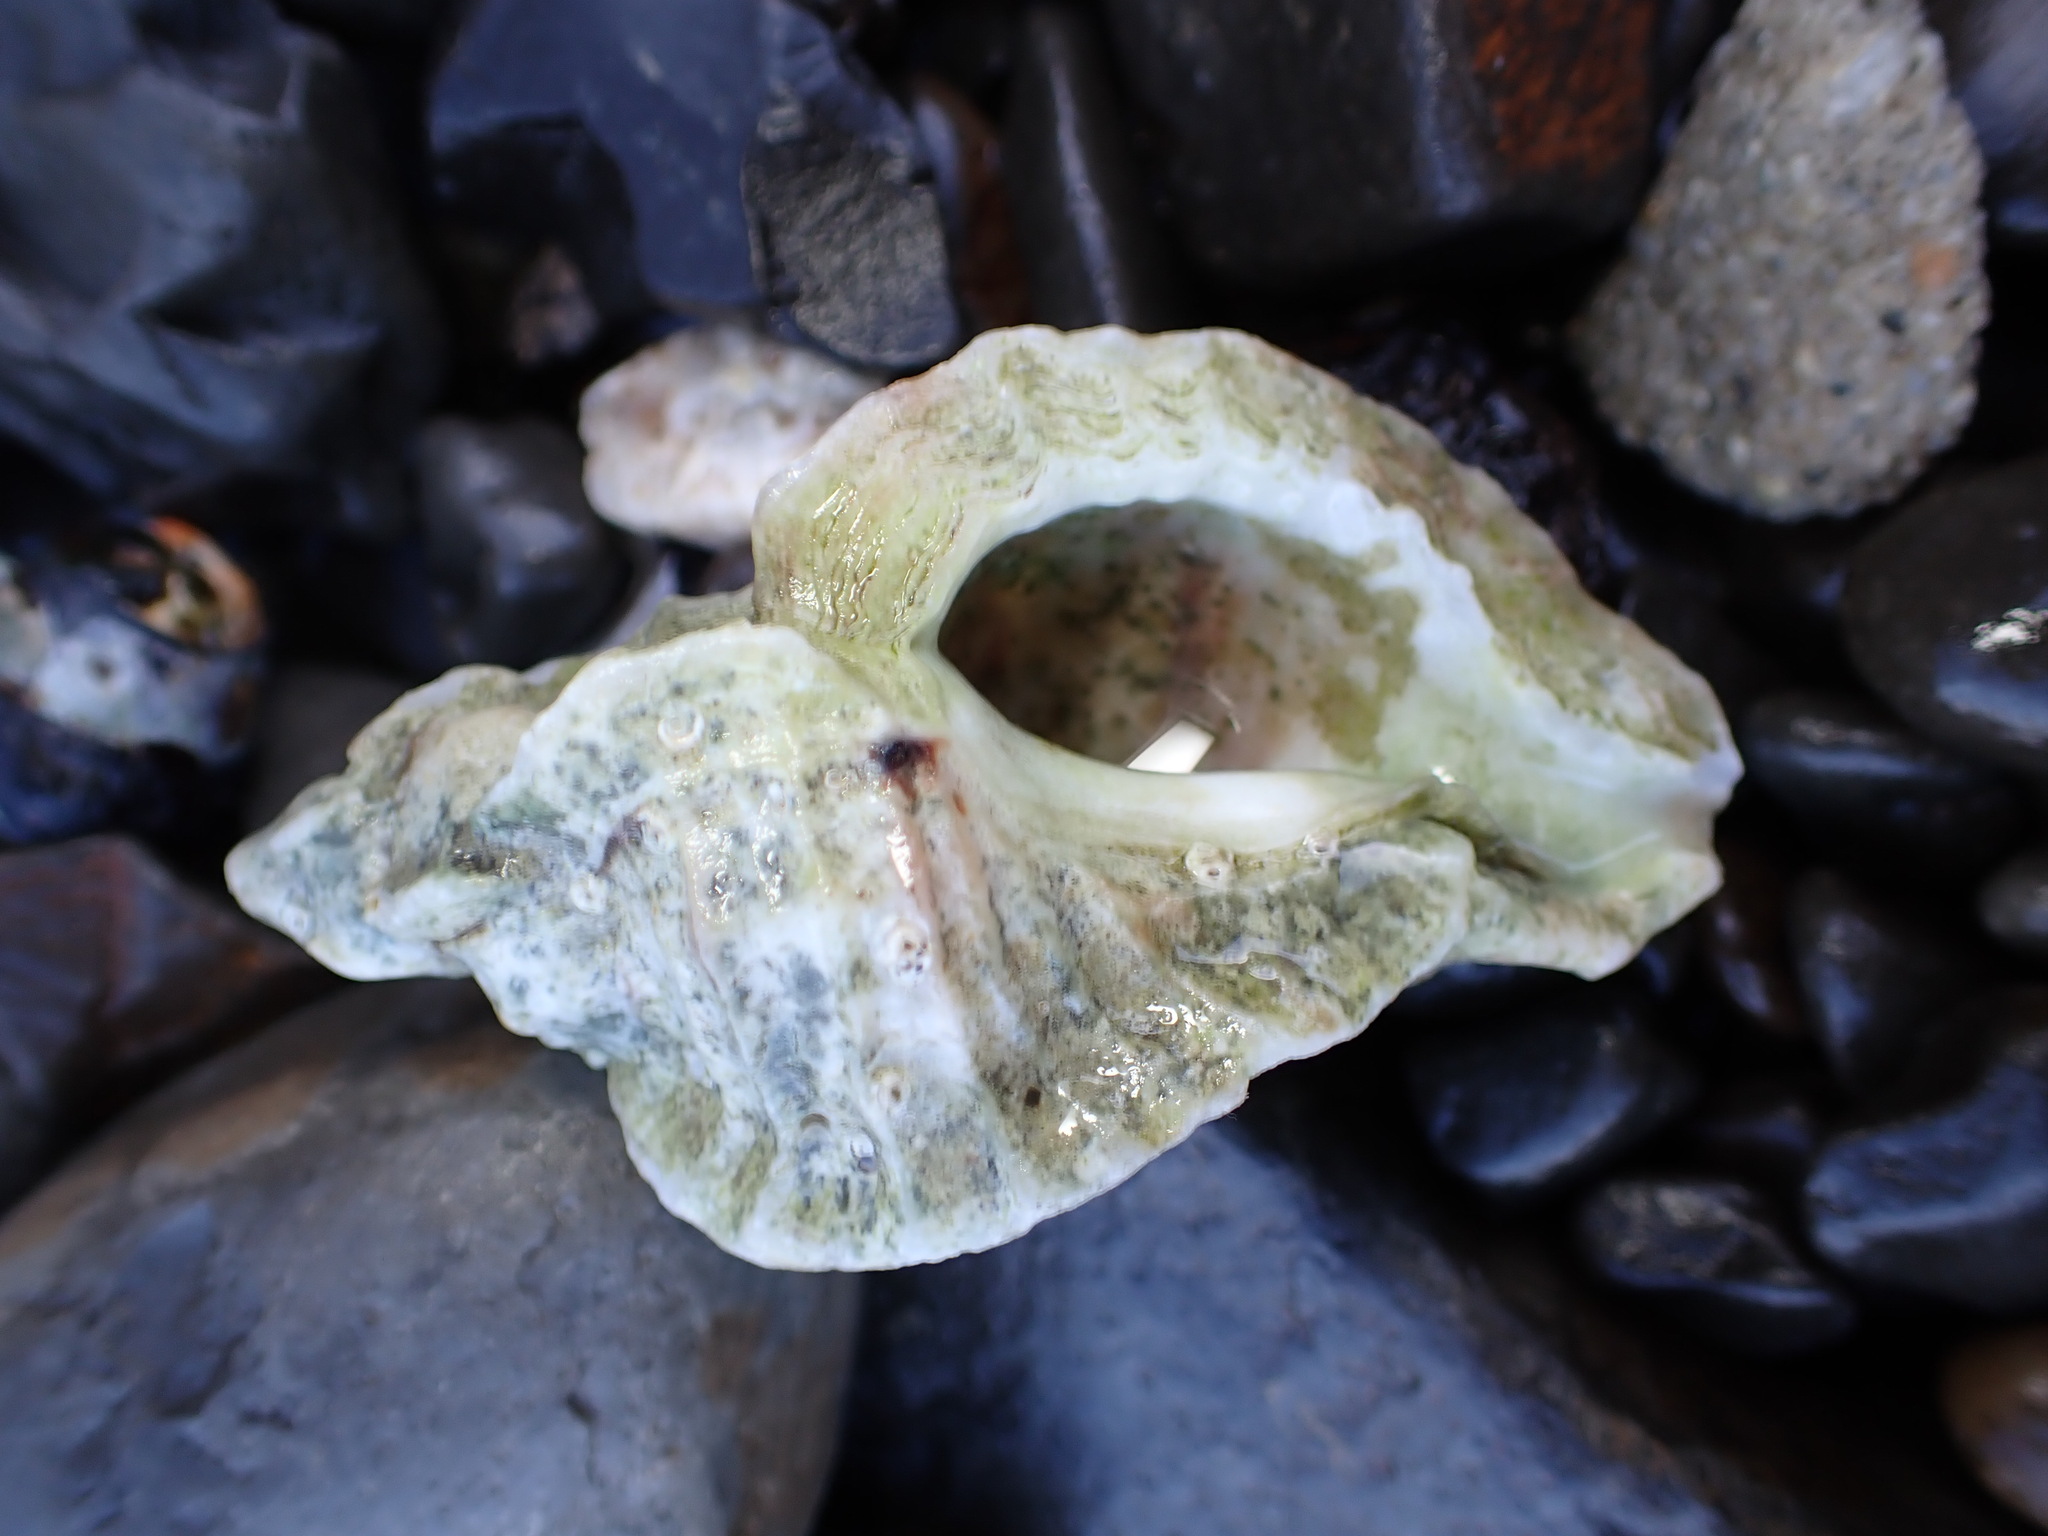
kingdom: Animalia
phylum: Mollusca
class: Gastropoda
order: Neogastropoda
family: Muricidae
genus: Ceratostoma
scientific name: Ceratostoma foliatum
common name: Foliate thorn purpura
